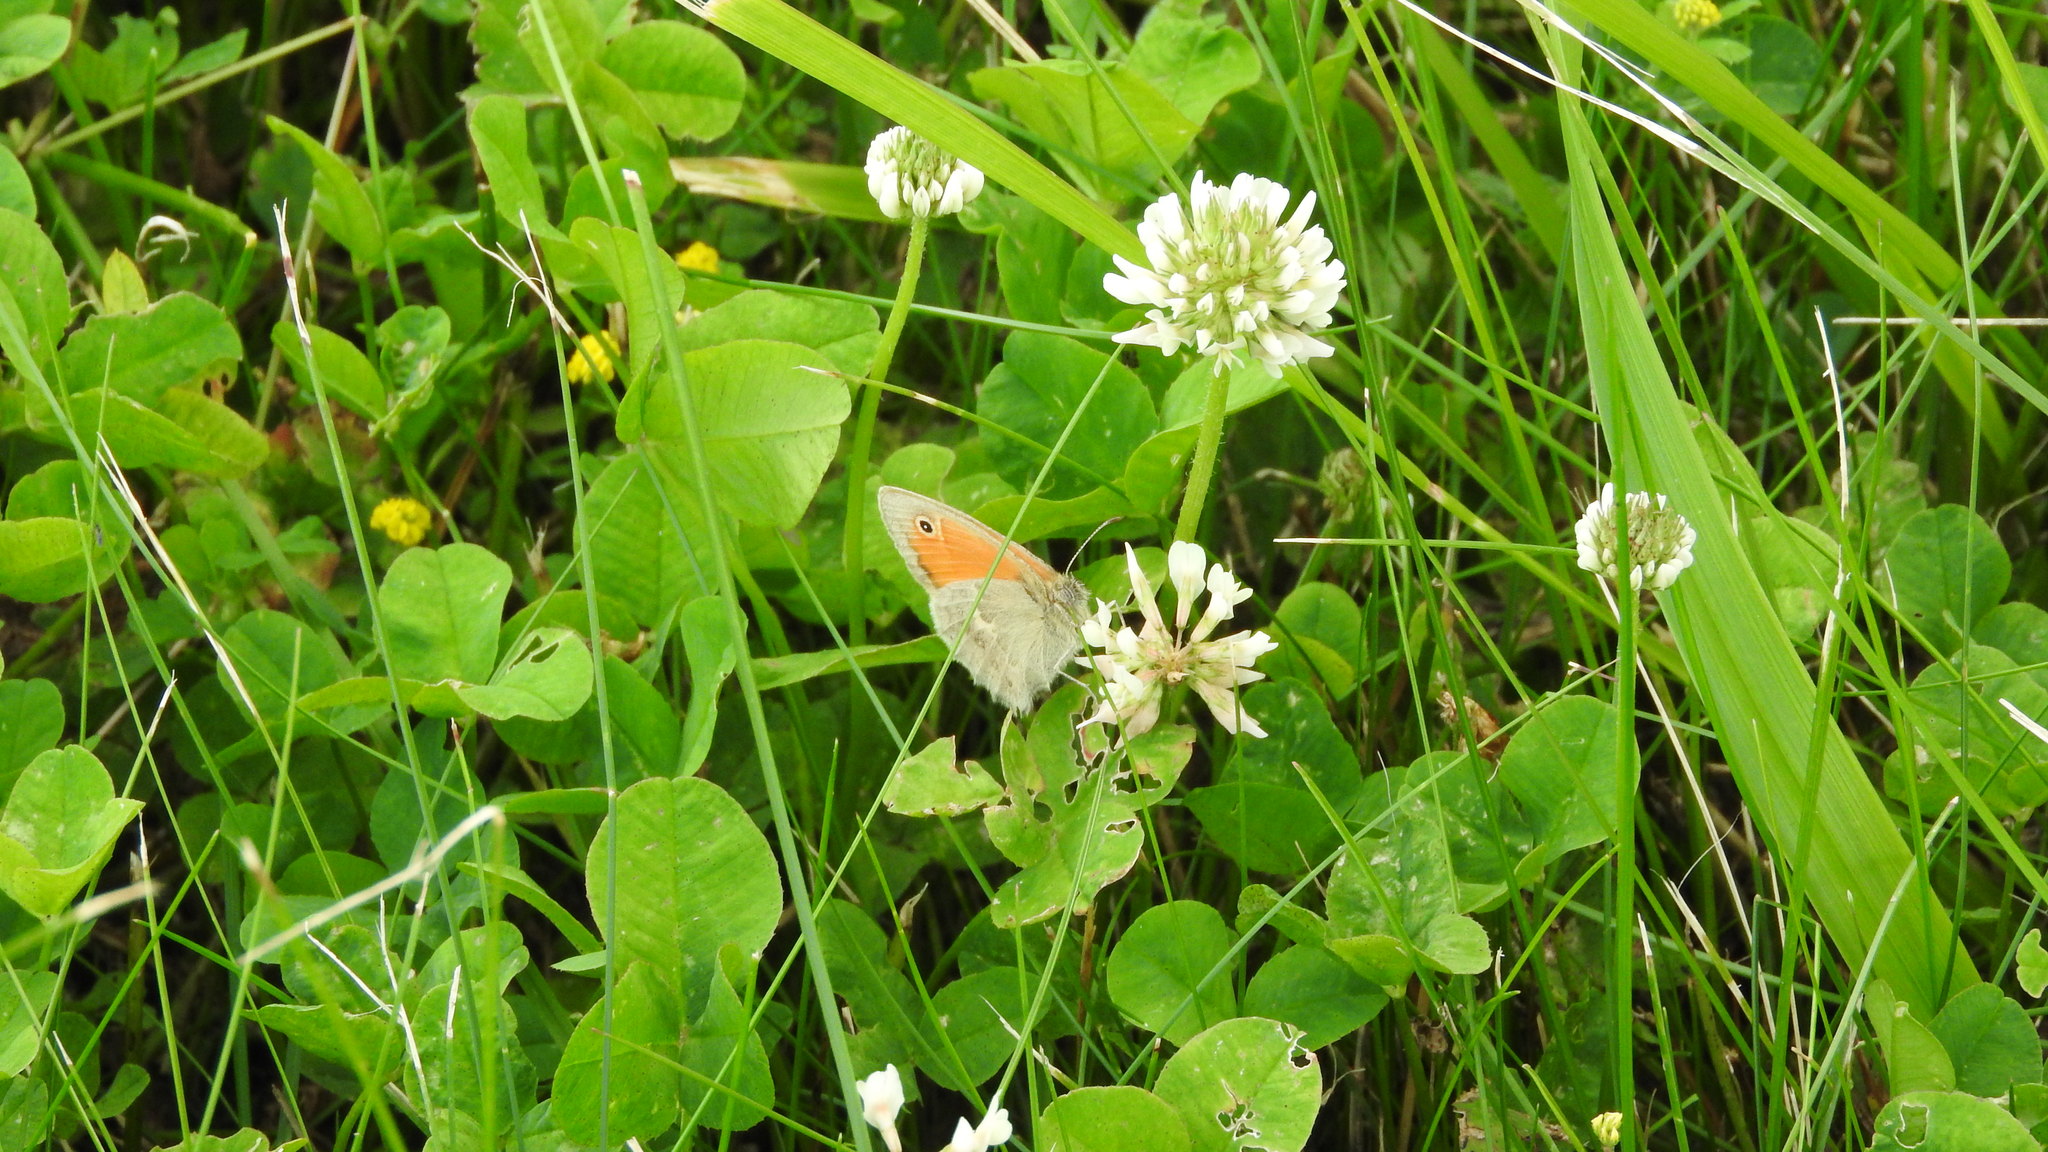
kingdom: Animalia
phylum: Arthropoda
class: Insecta
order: Lepidoptera
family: Nymphalidae
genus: Coenonympha
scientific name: Coenonympha pamphilus
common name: Small heath
